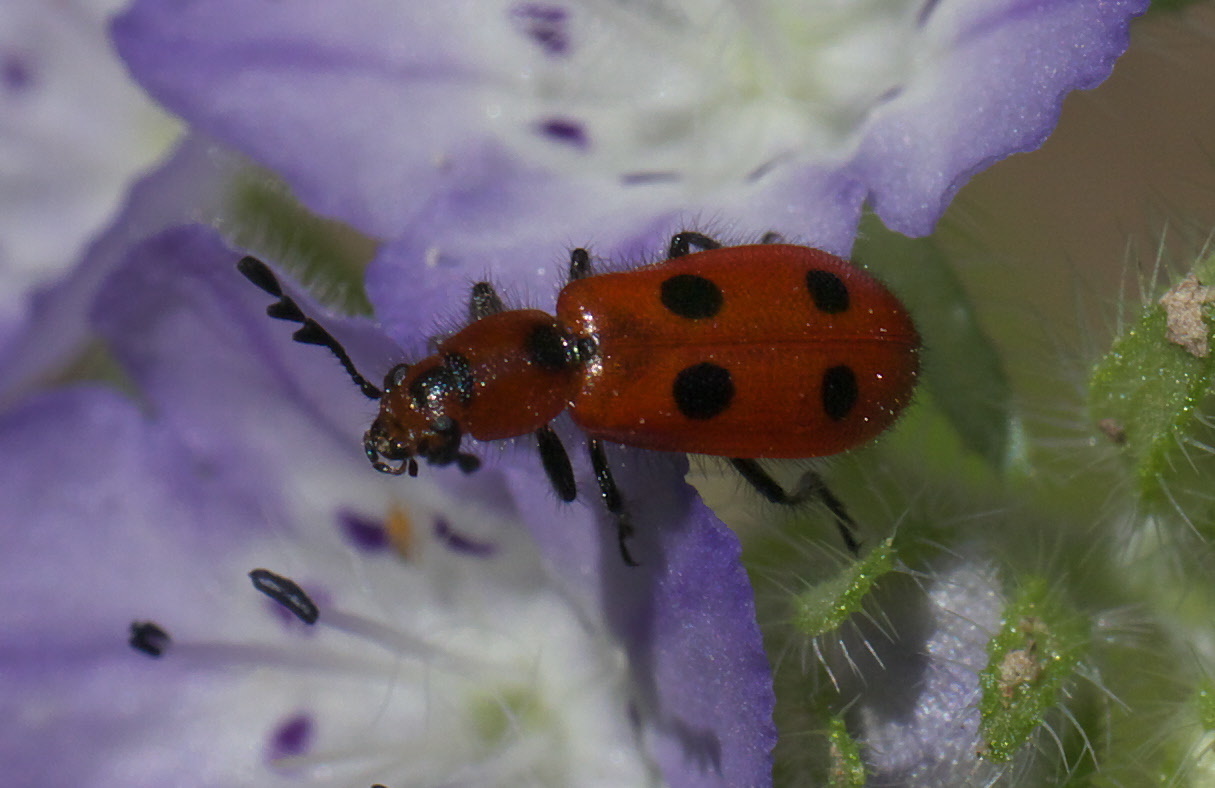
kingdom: Animalia
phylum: Arthropoda
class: Insecta
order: Coleoptera
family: Cleridae
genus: Pelonides
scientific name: Pelonides
